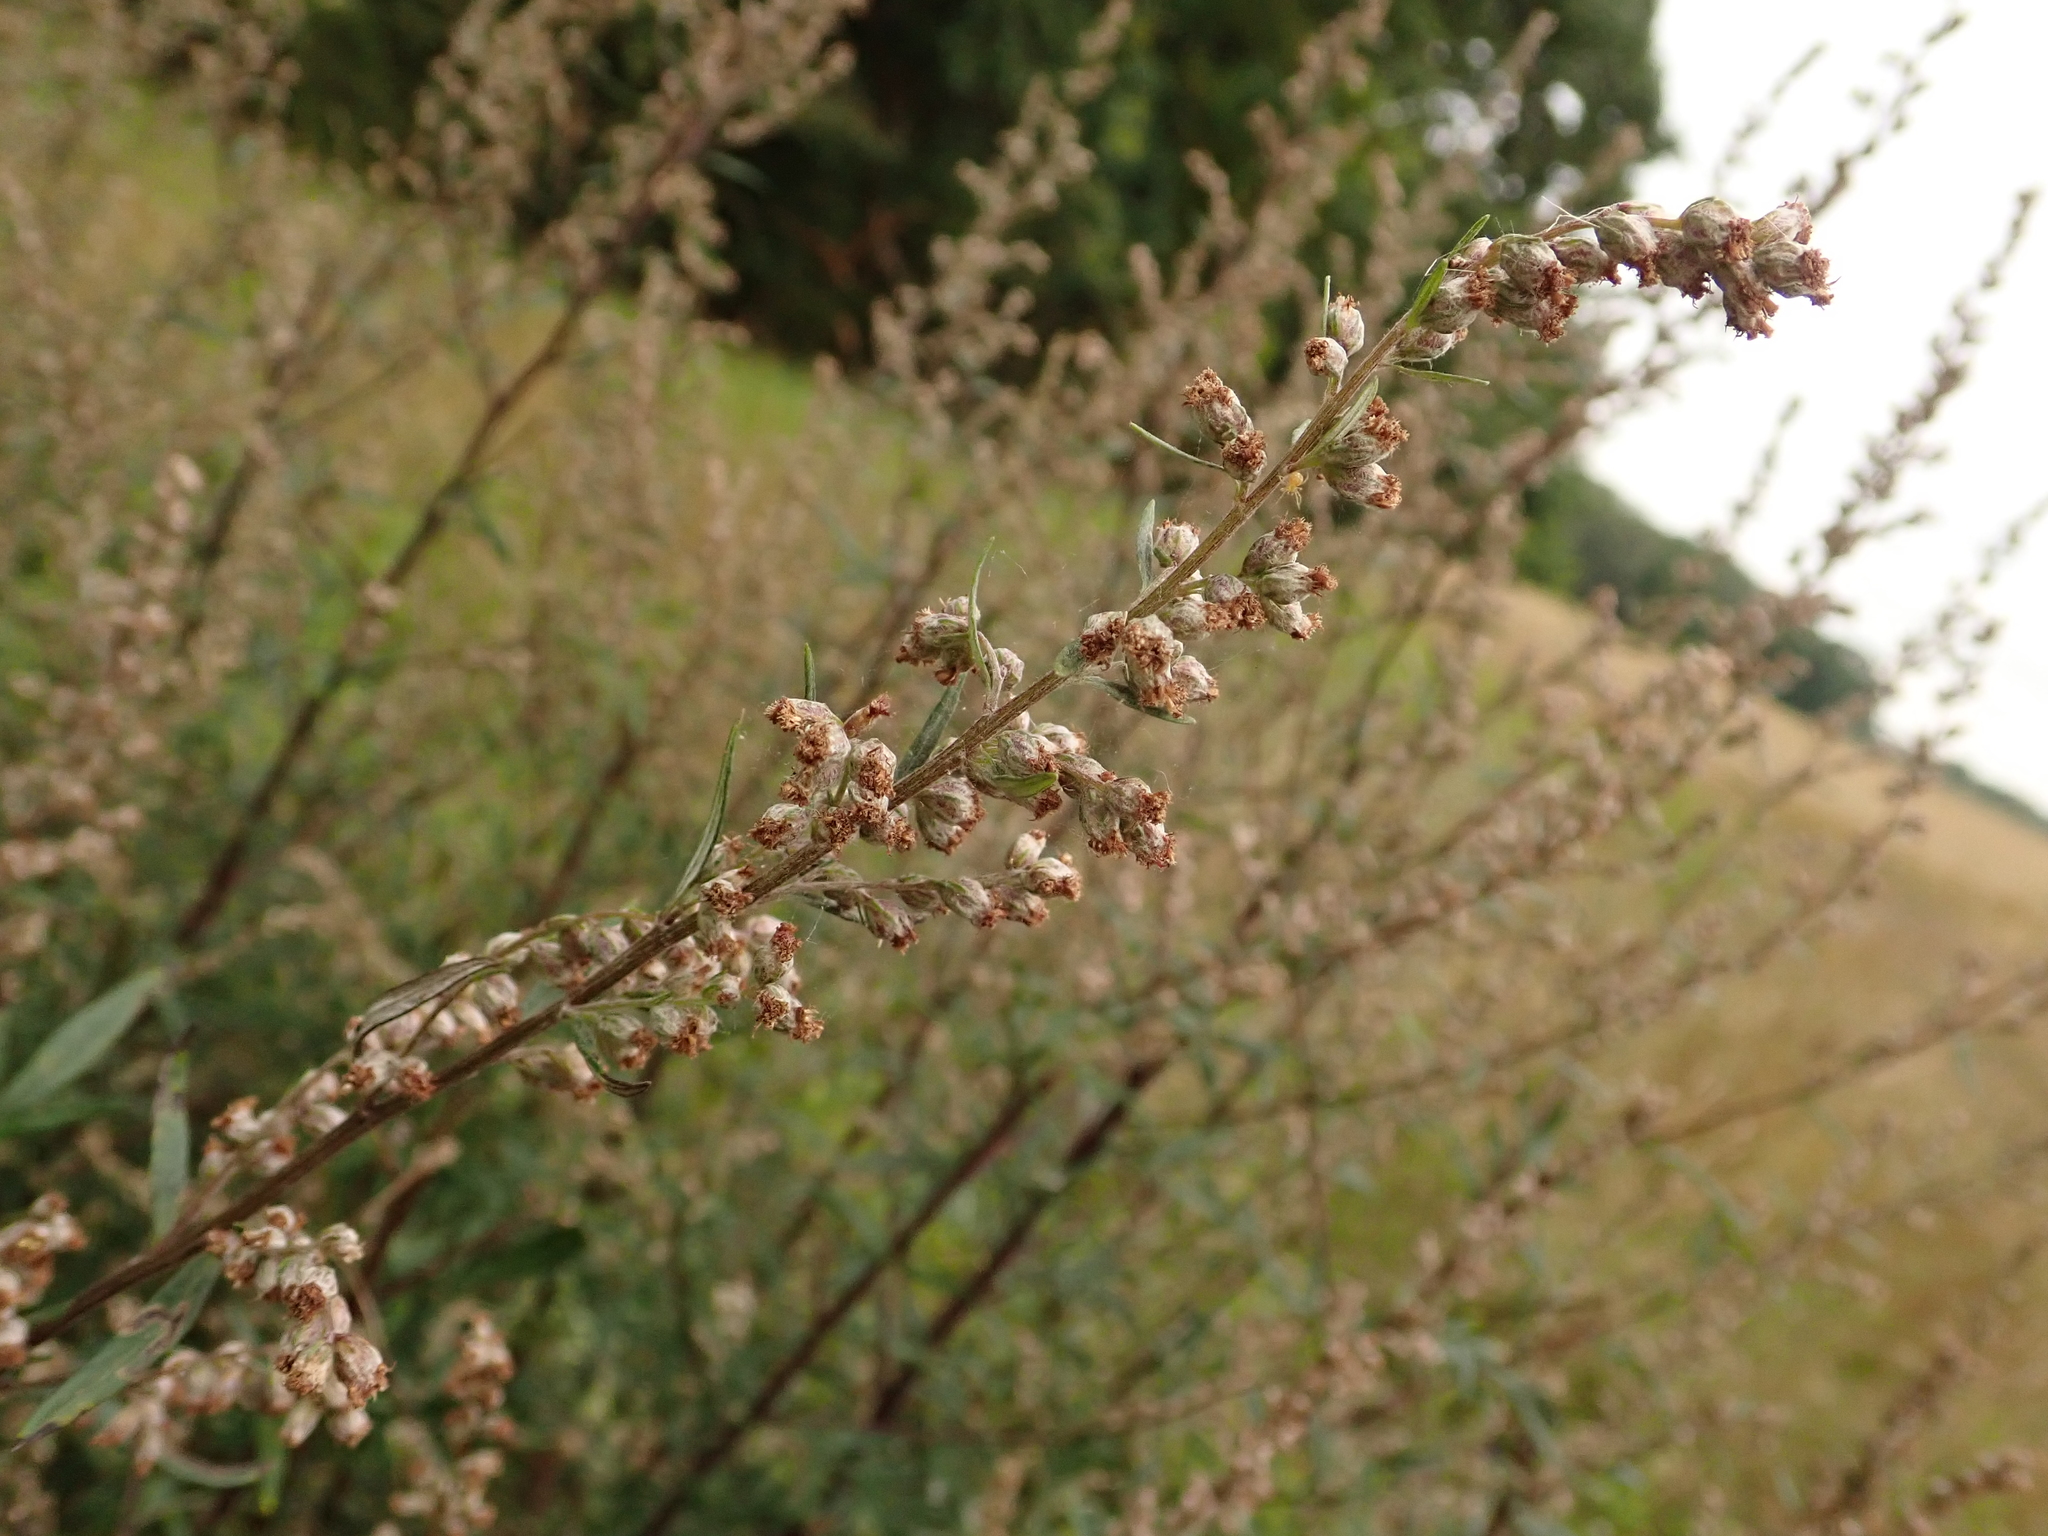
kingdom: Plantae
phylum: Tracheophyta
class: Magnoliopsida
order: Asterales
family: Asteraceae
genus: Artemisia
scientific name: Artemisia vulgaris
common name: Mugwort
